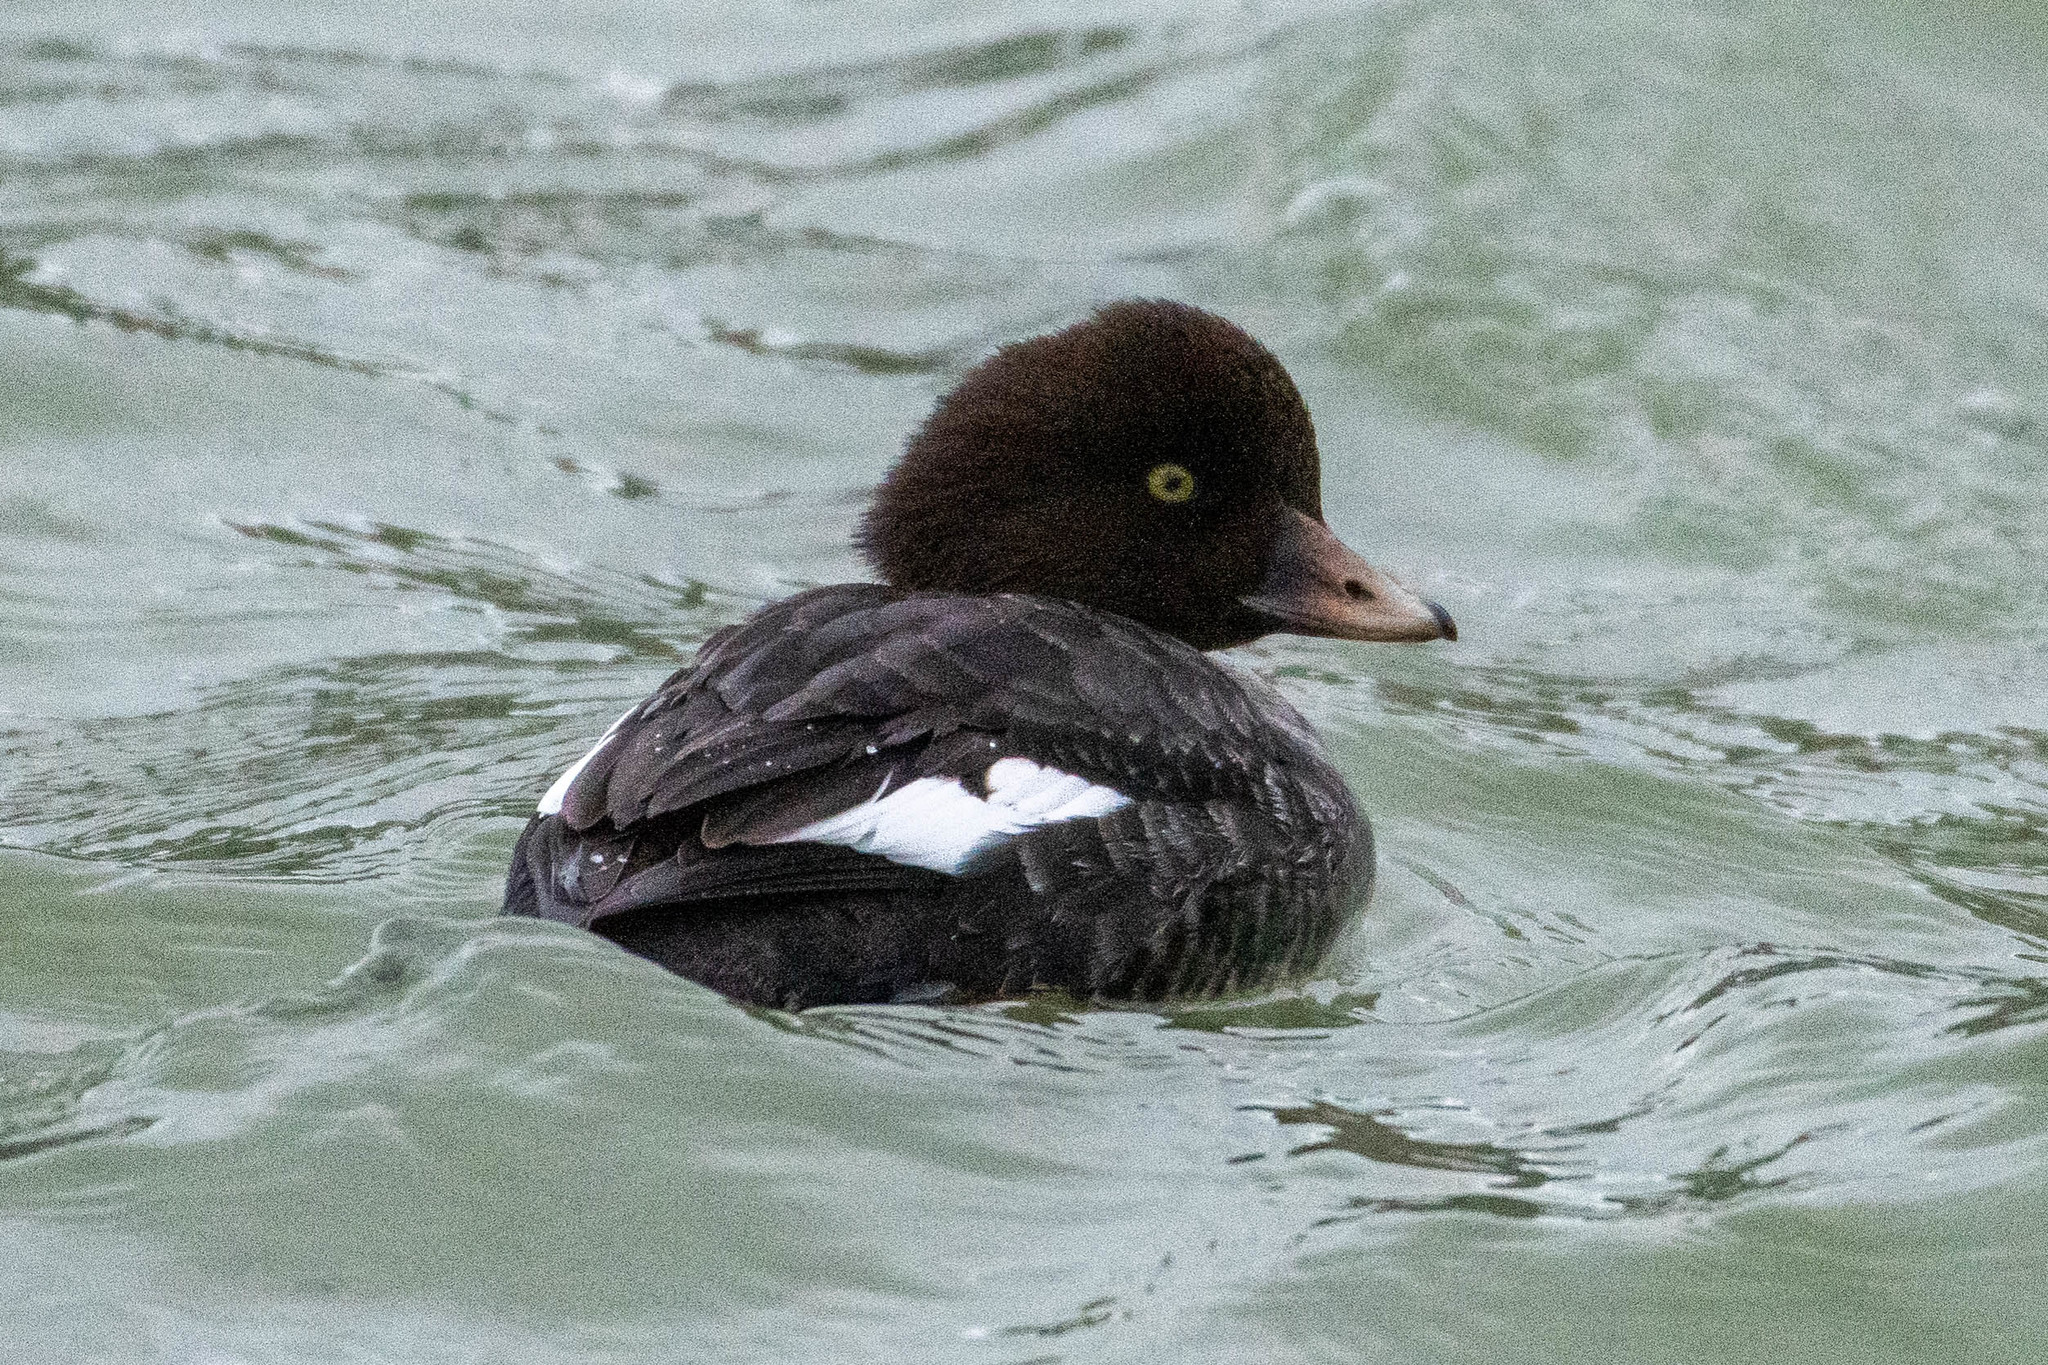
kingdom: Animalia
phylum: Chordata
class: Aves
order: Anseriformes
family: Anatidae
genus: Bucephala
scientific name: Bucephala islandica
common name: Barrow's goldeneye
